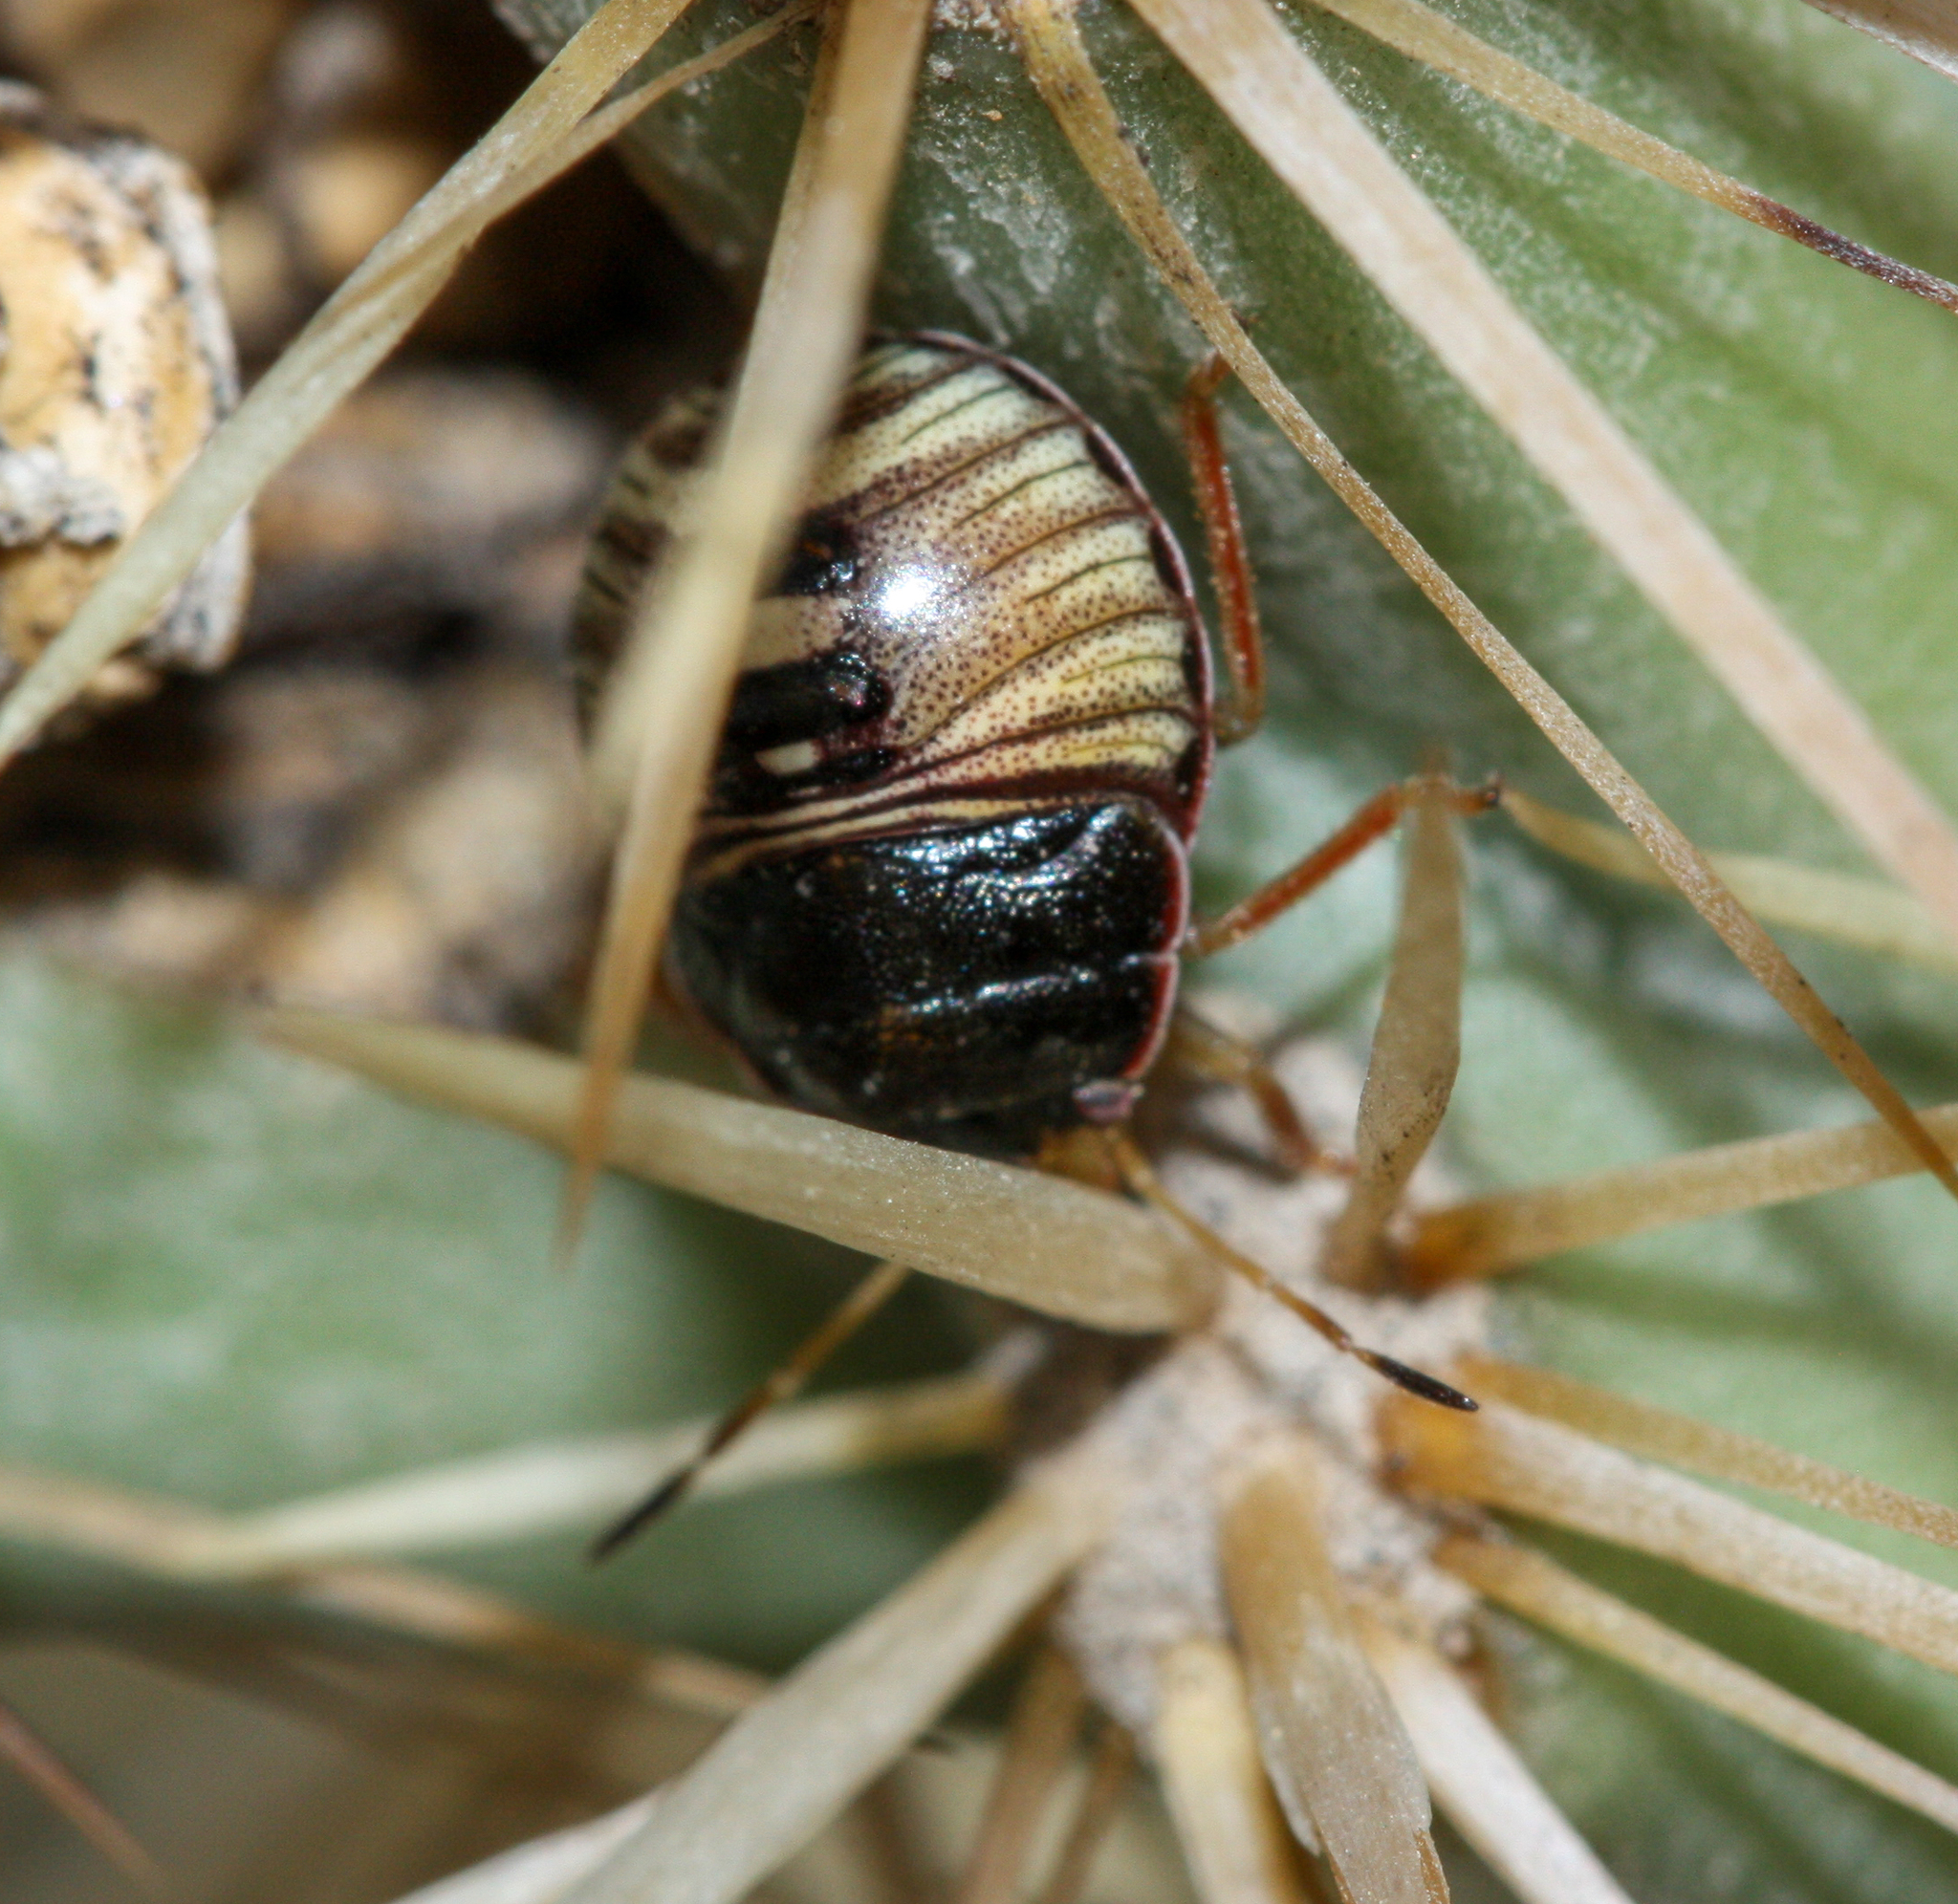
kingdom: Animalia
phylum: Arthropoda
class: Insecta
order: Hemiptera
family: Pentatomidae
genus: Chlorochroa
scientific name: Chlorochroa opuntiae
